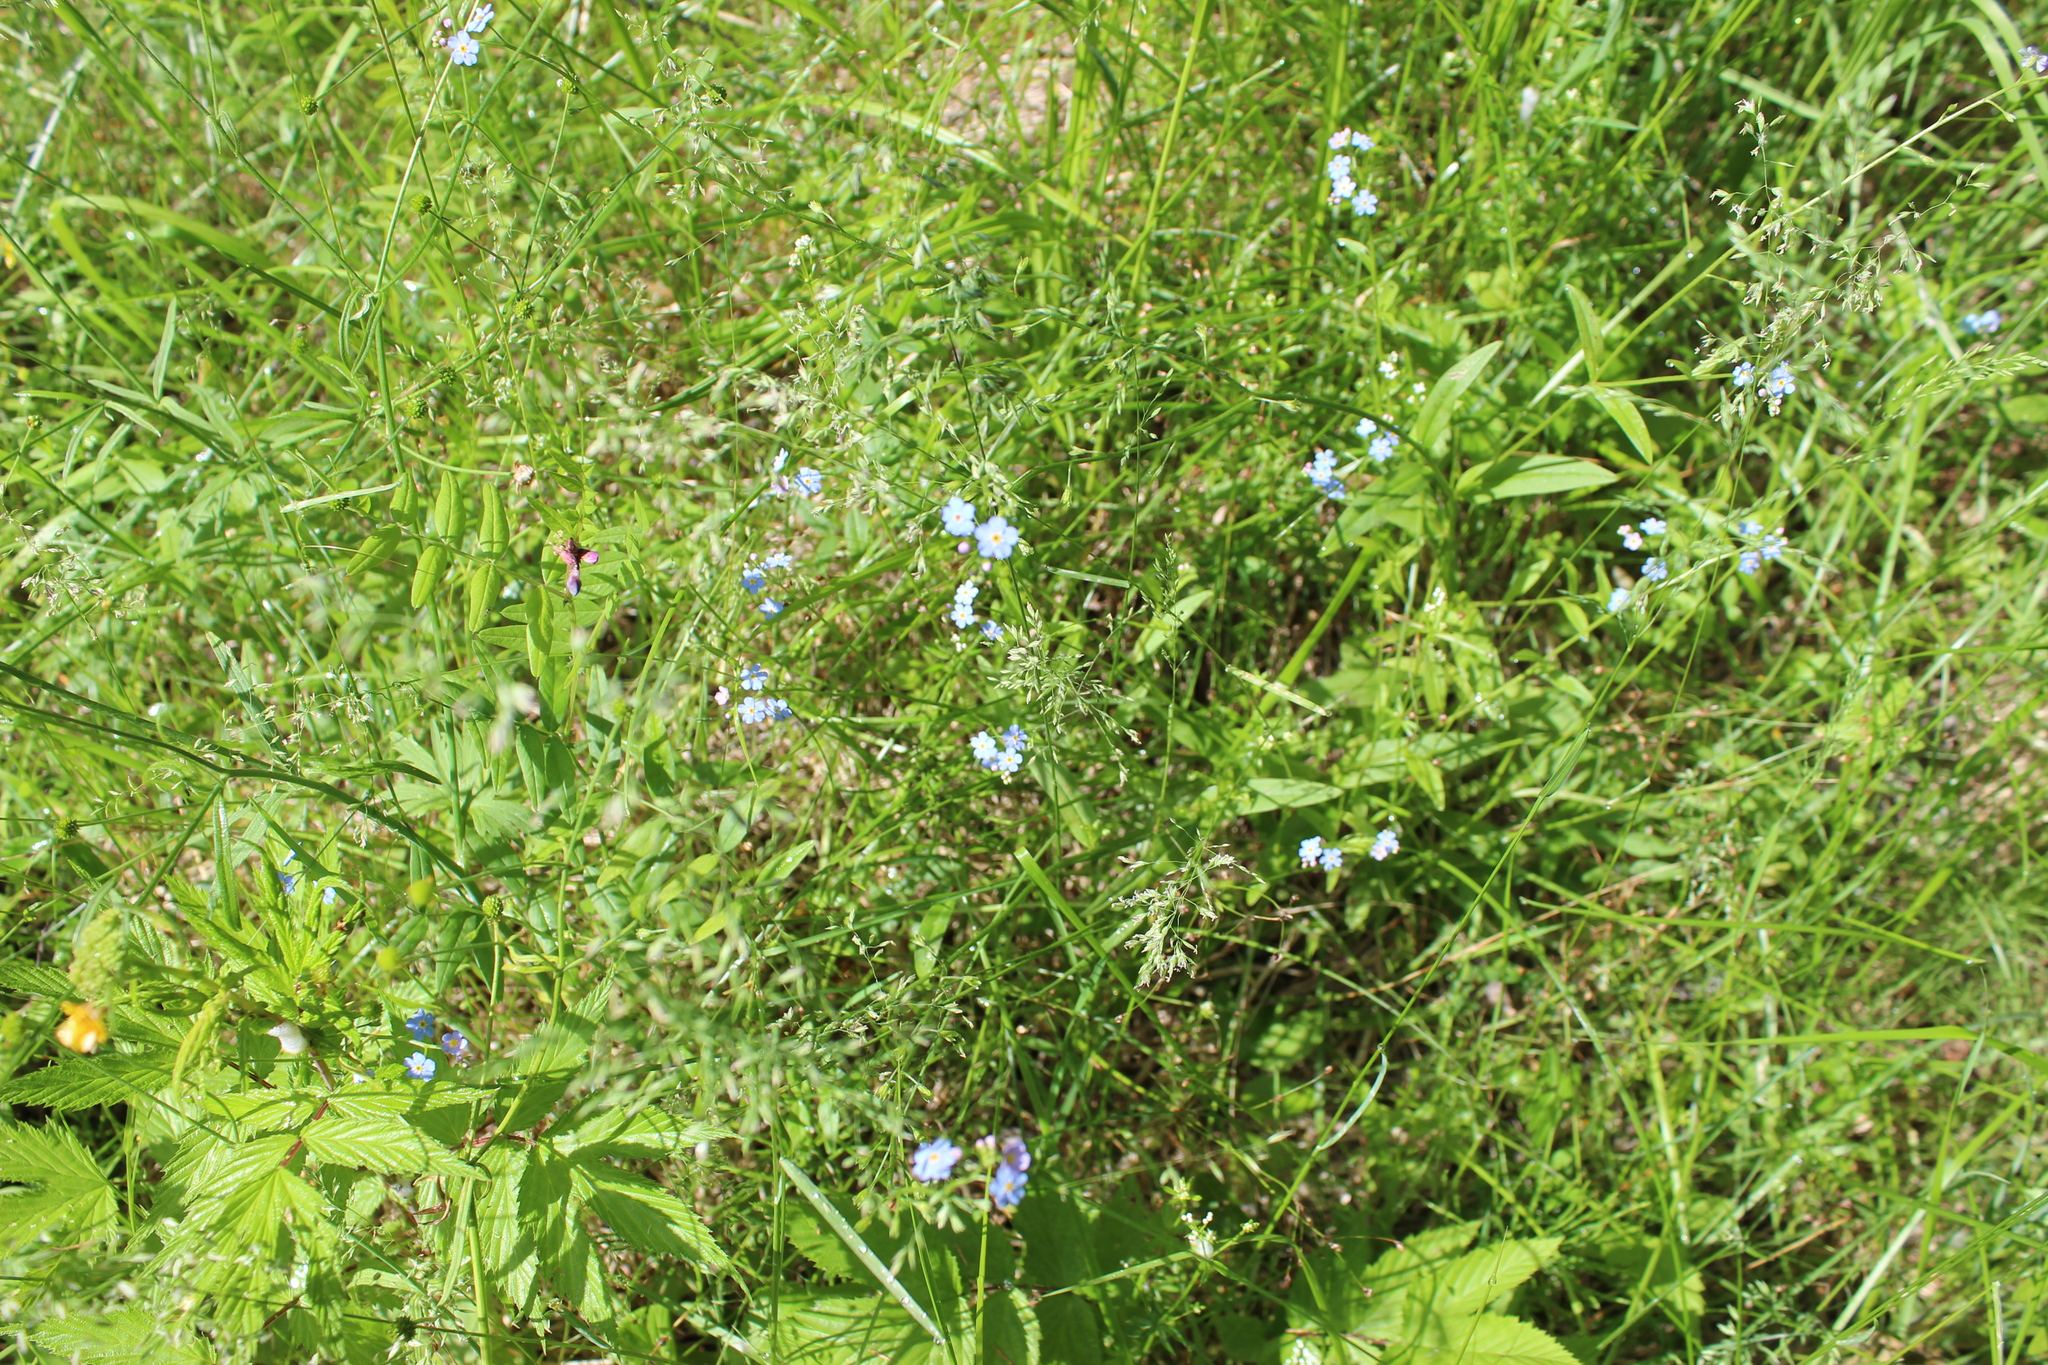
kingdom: Plantae
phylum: Tracheophyta
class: Magnoliopsida
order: Boraginales
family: Boraginaceae
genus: Myosotis
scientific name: Myosotis scorpioides
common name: Water forget-me-not
